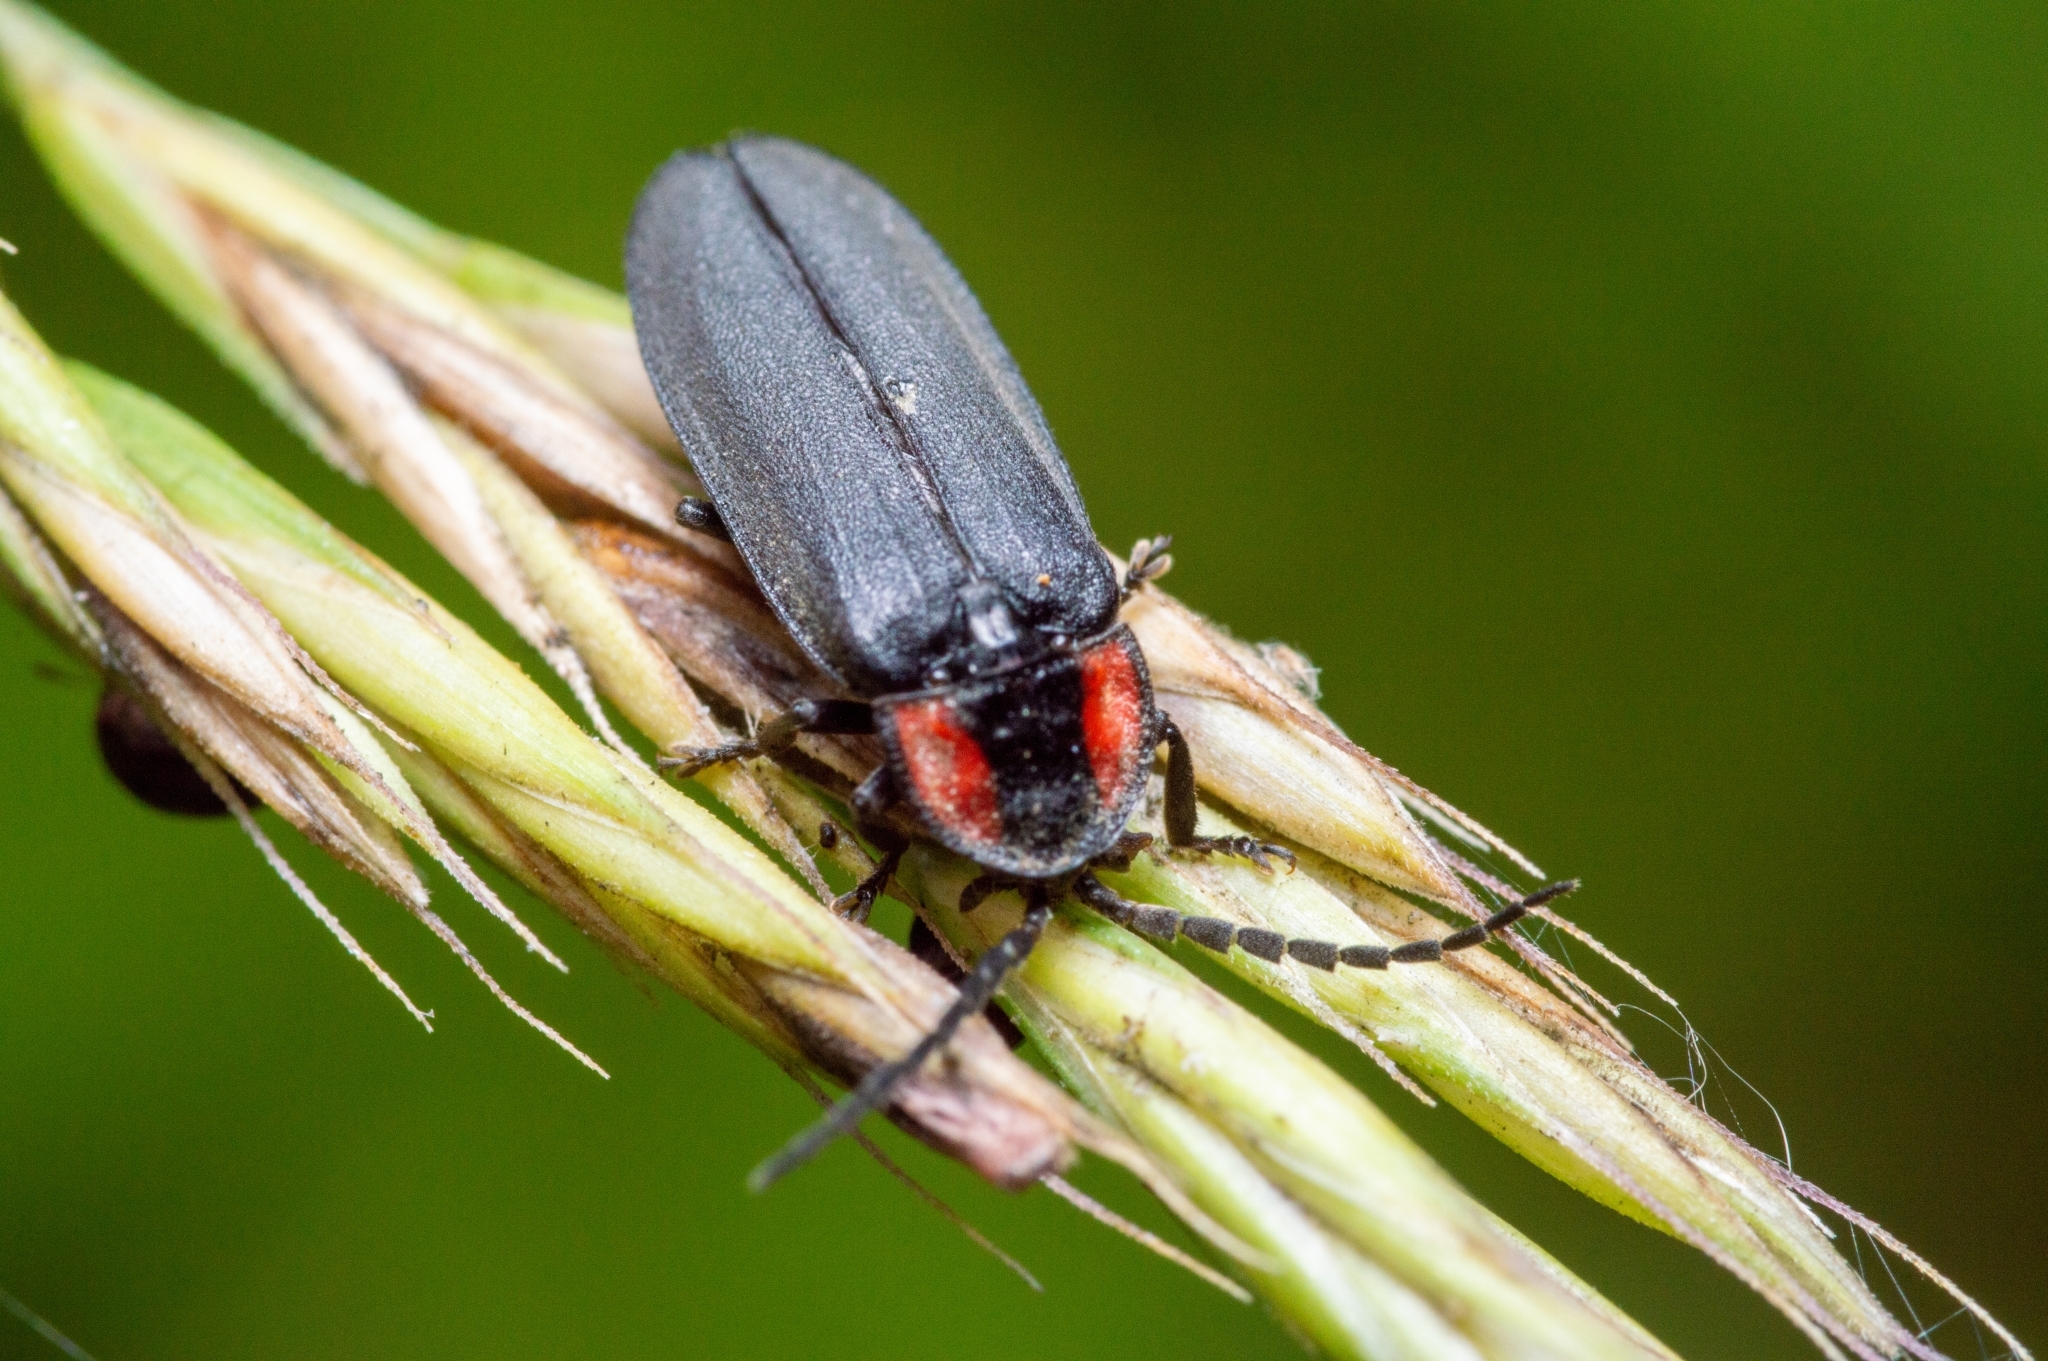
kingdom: Animalia
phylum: Arthropoda
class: Insecta
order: Coleoptera
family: Lampyridae
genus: Pyropyga
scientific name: Pyropyga nigricans
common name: Dark firefly
